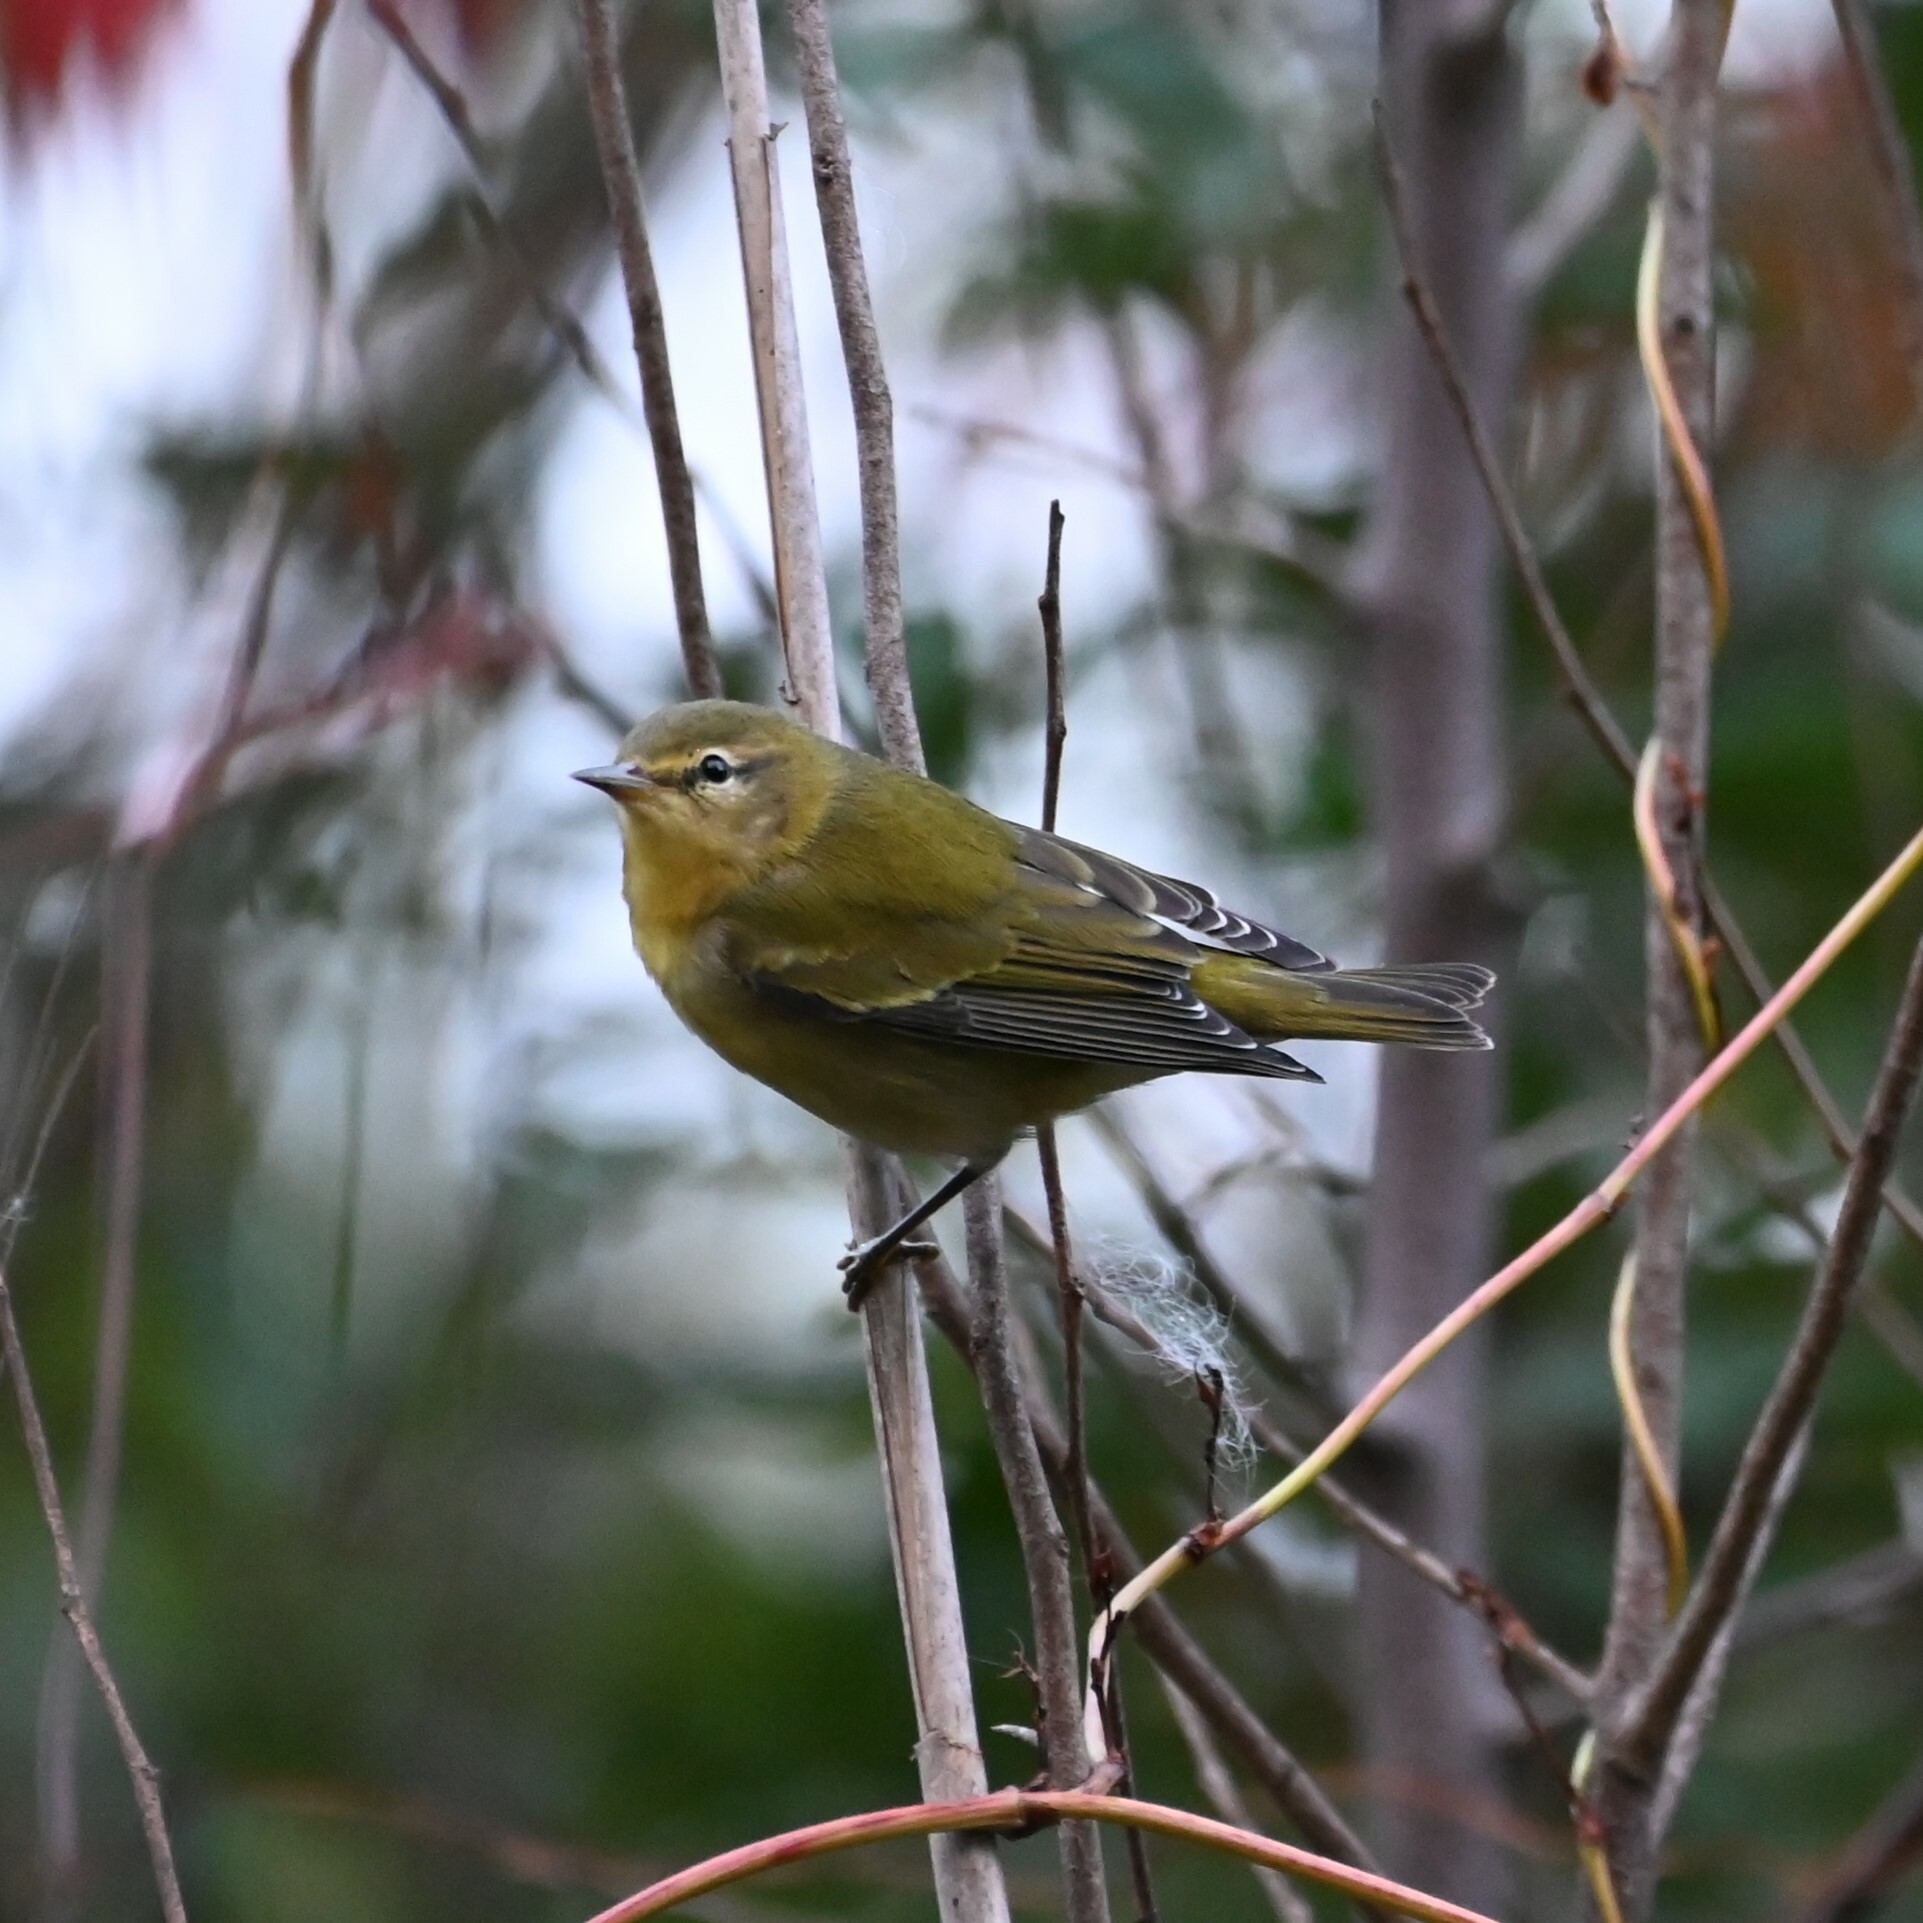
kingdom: Animalia
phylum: Chordata
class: Aves
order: Passeriformes
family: Parulidae
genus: Leiothlypis
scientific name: Leiothlypis peregrina
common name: Tennessee warbler
